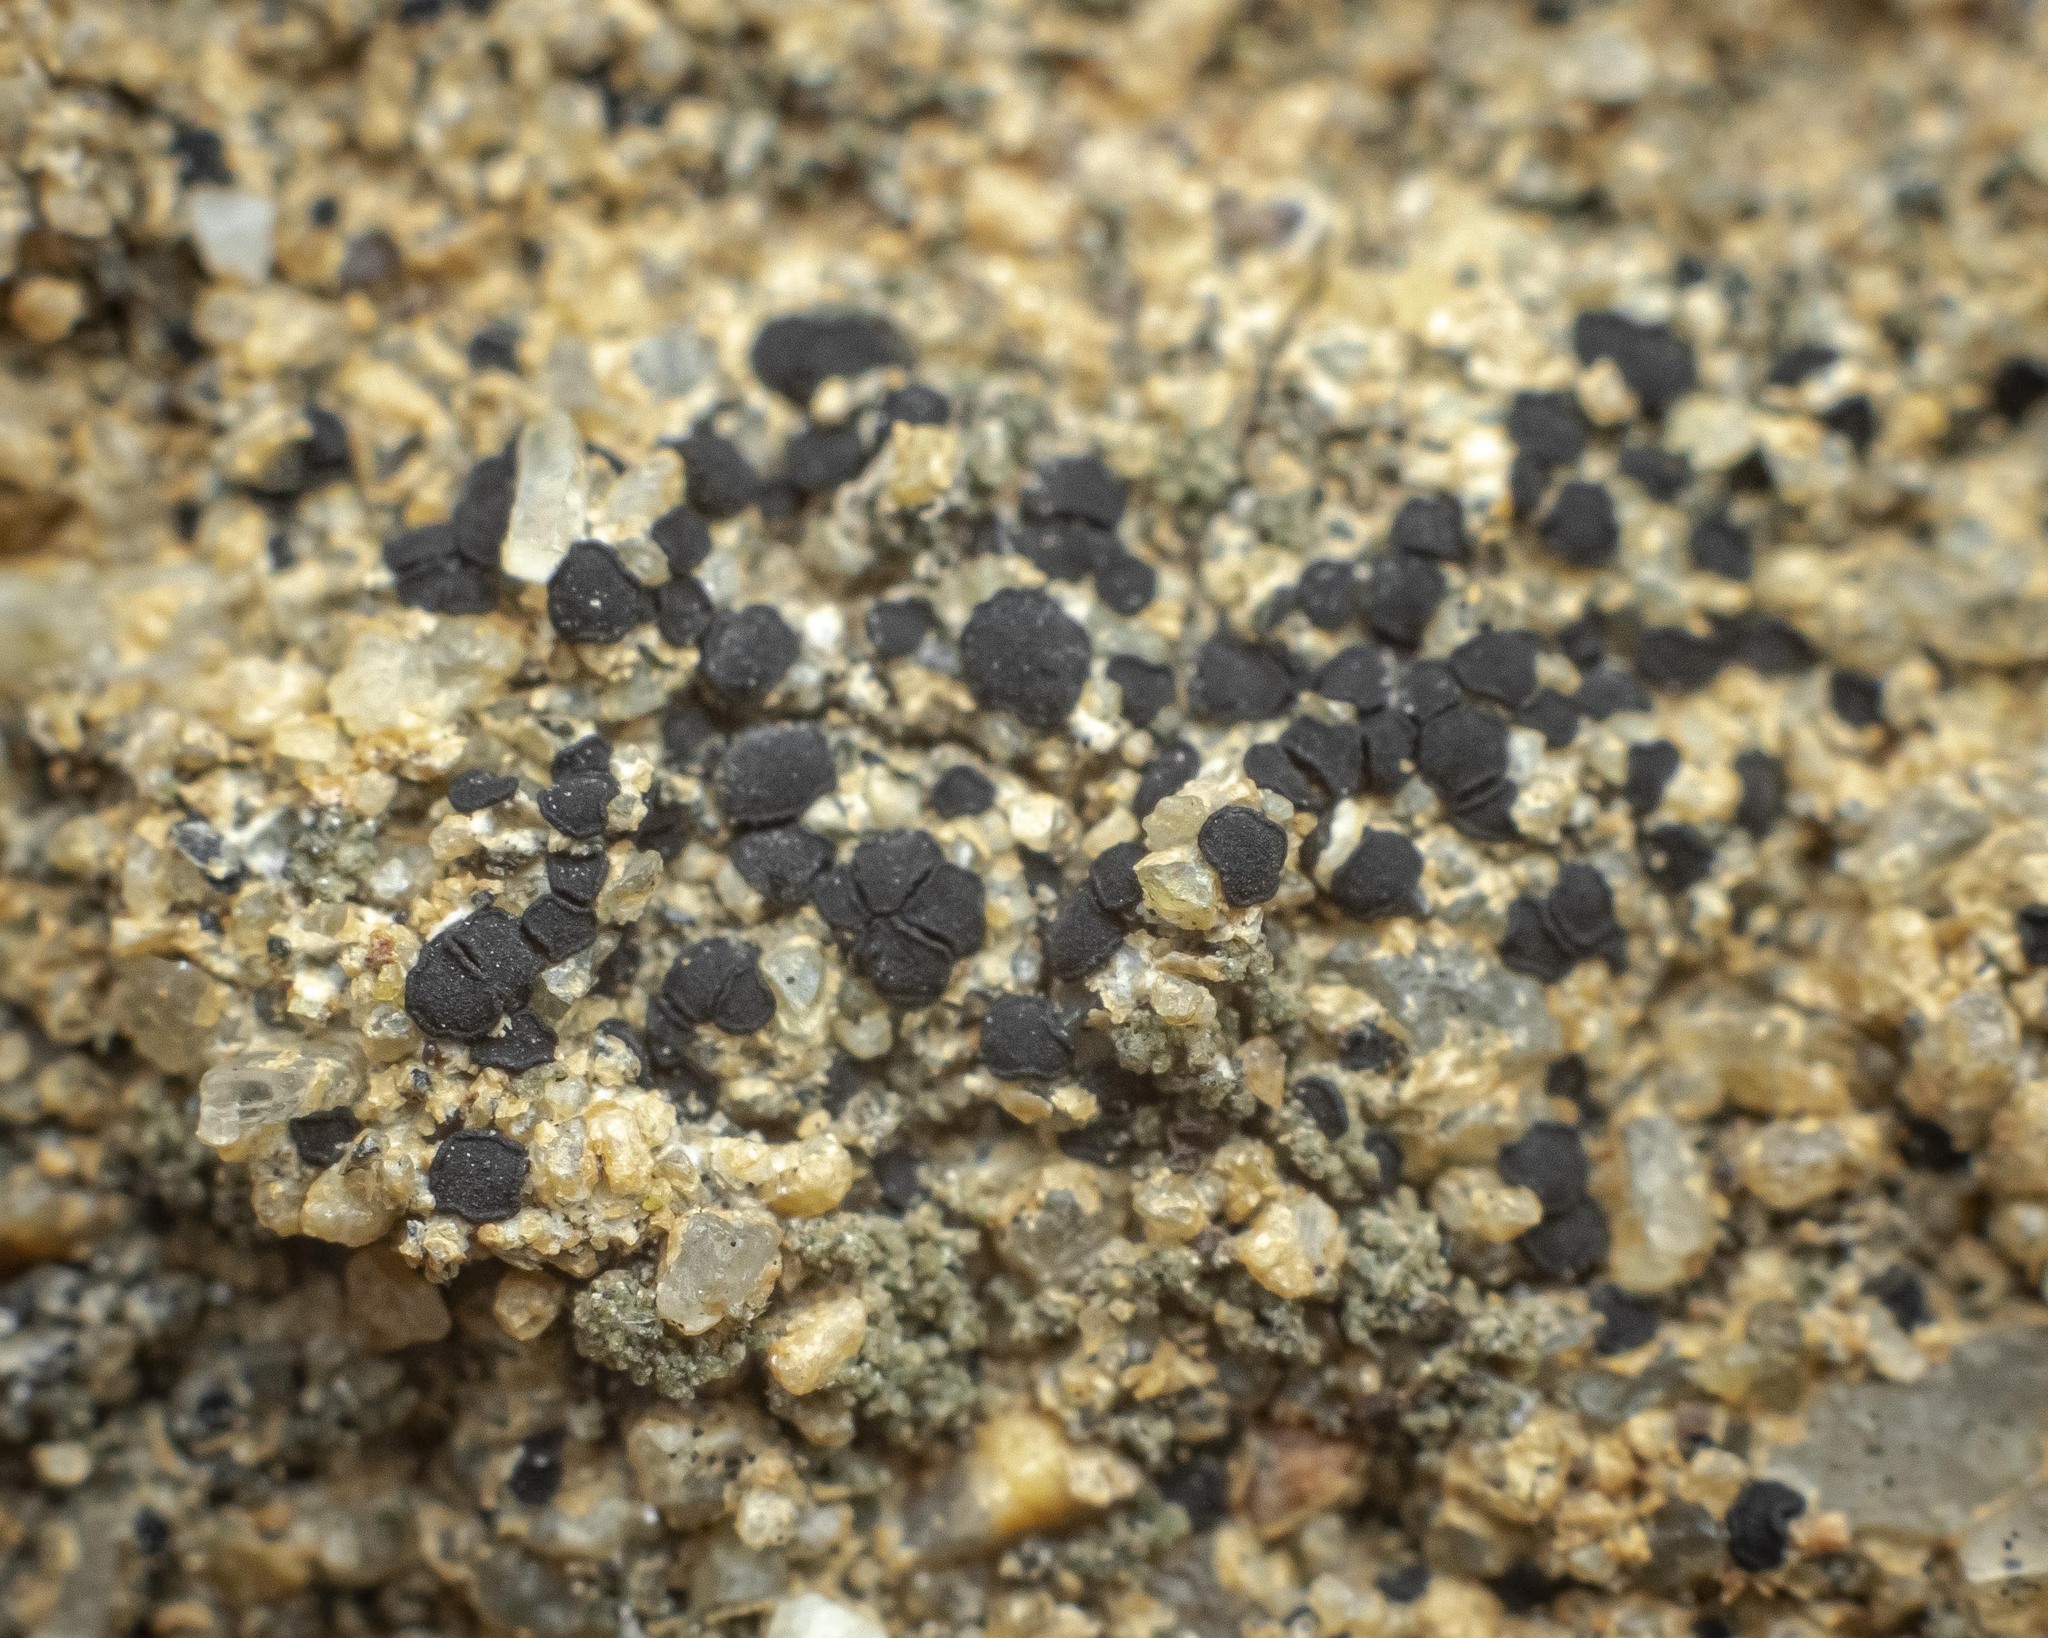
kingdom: Fungi
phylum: Ascomycota
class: Lecanoromycetes
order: Acarosporales
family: Acarosporaceae
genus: Sarcogyne
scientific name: Sarcogyne similis
